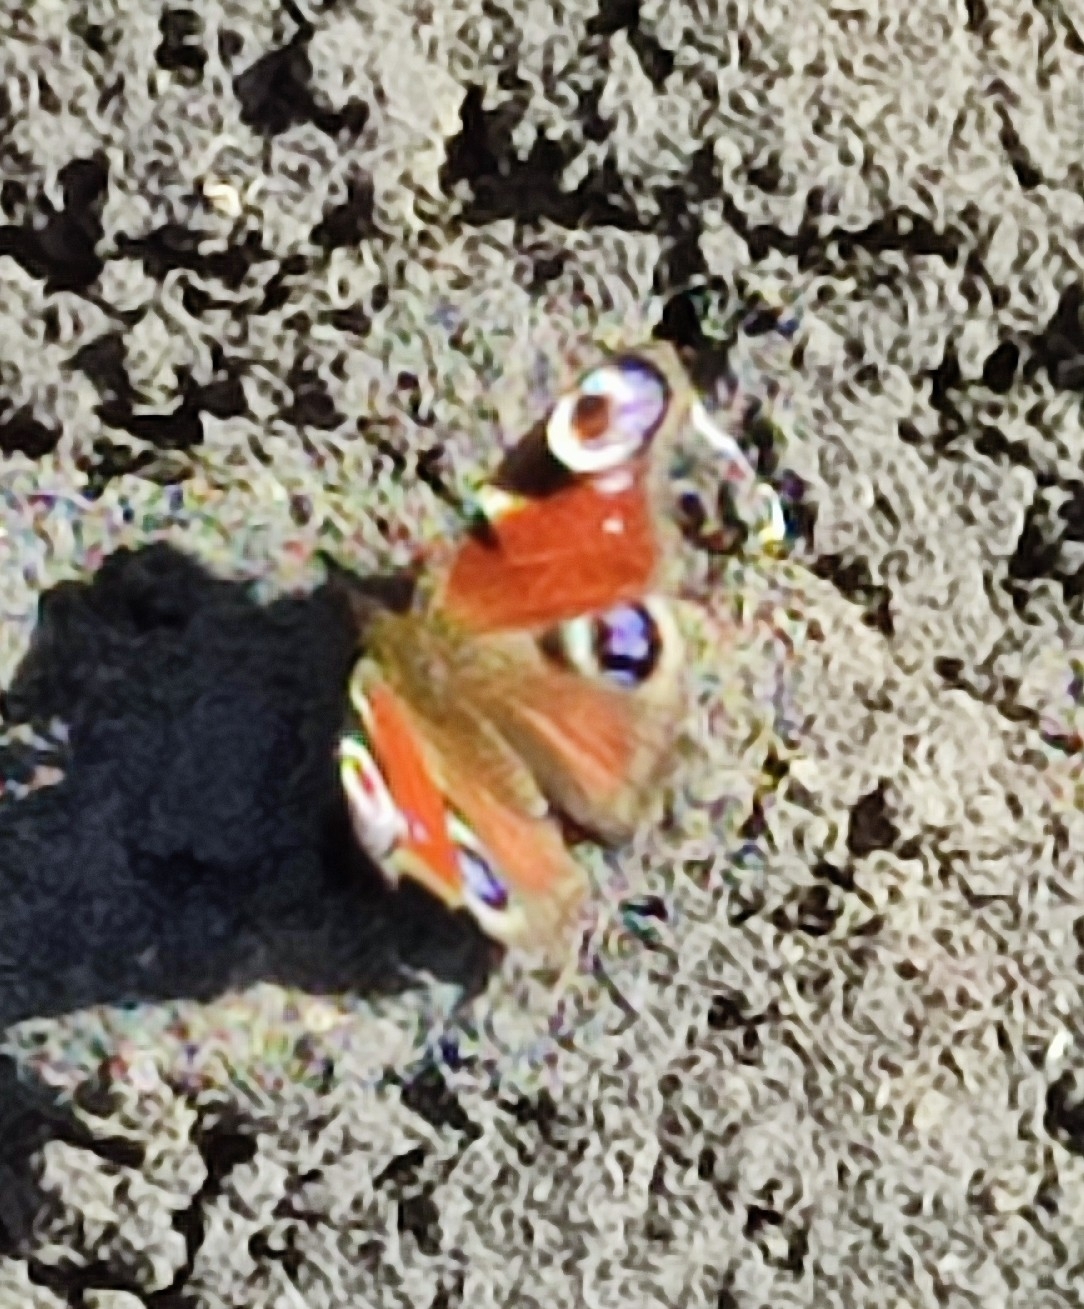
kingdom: Animalia
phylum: Arthropoda
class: Insecta
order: Lepidoptera
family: Nymphalidae
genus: Aglais
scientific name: Aglais io
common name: Peacock
